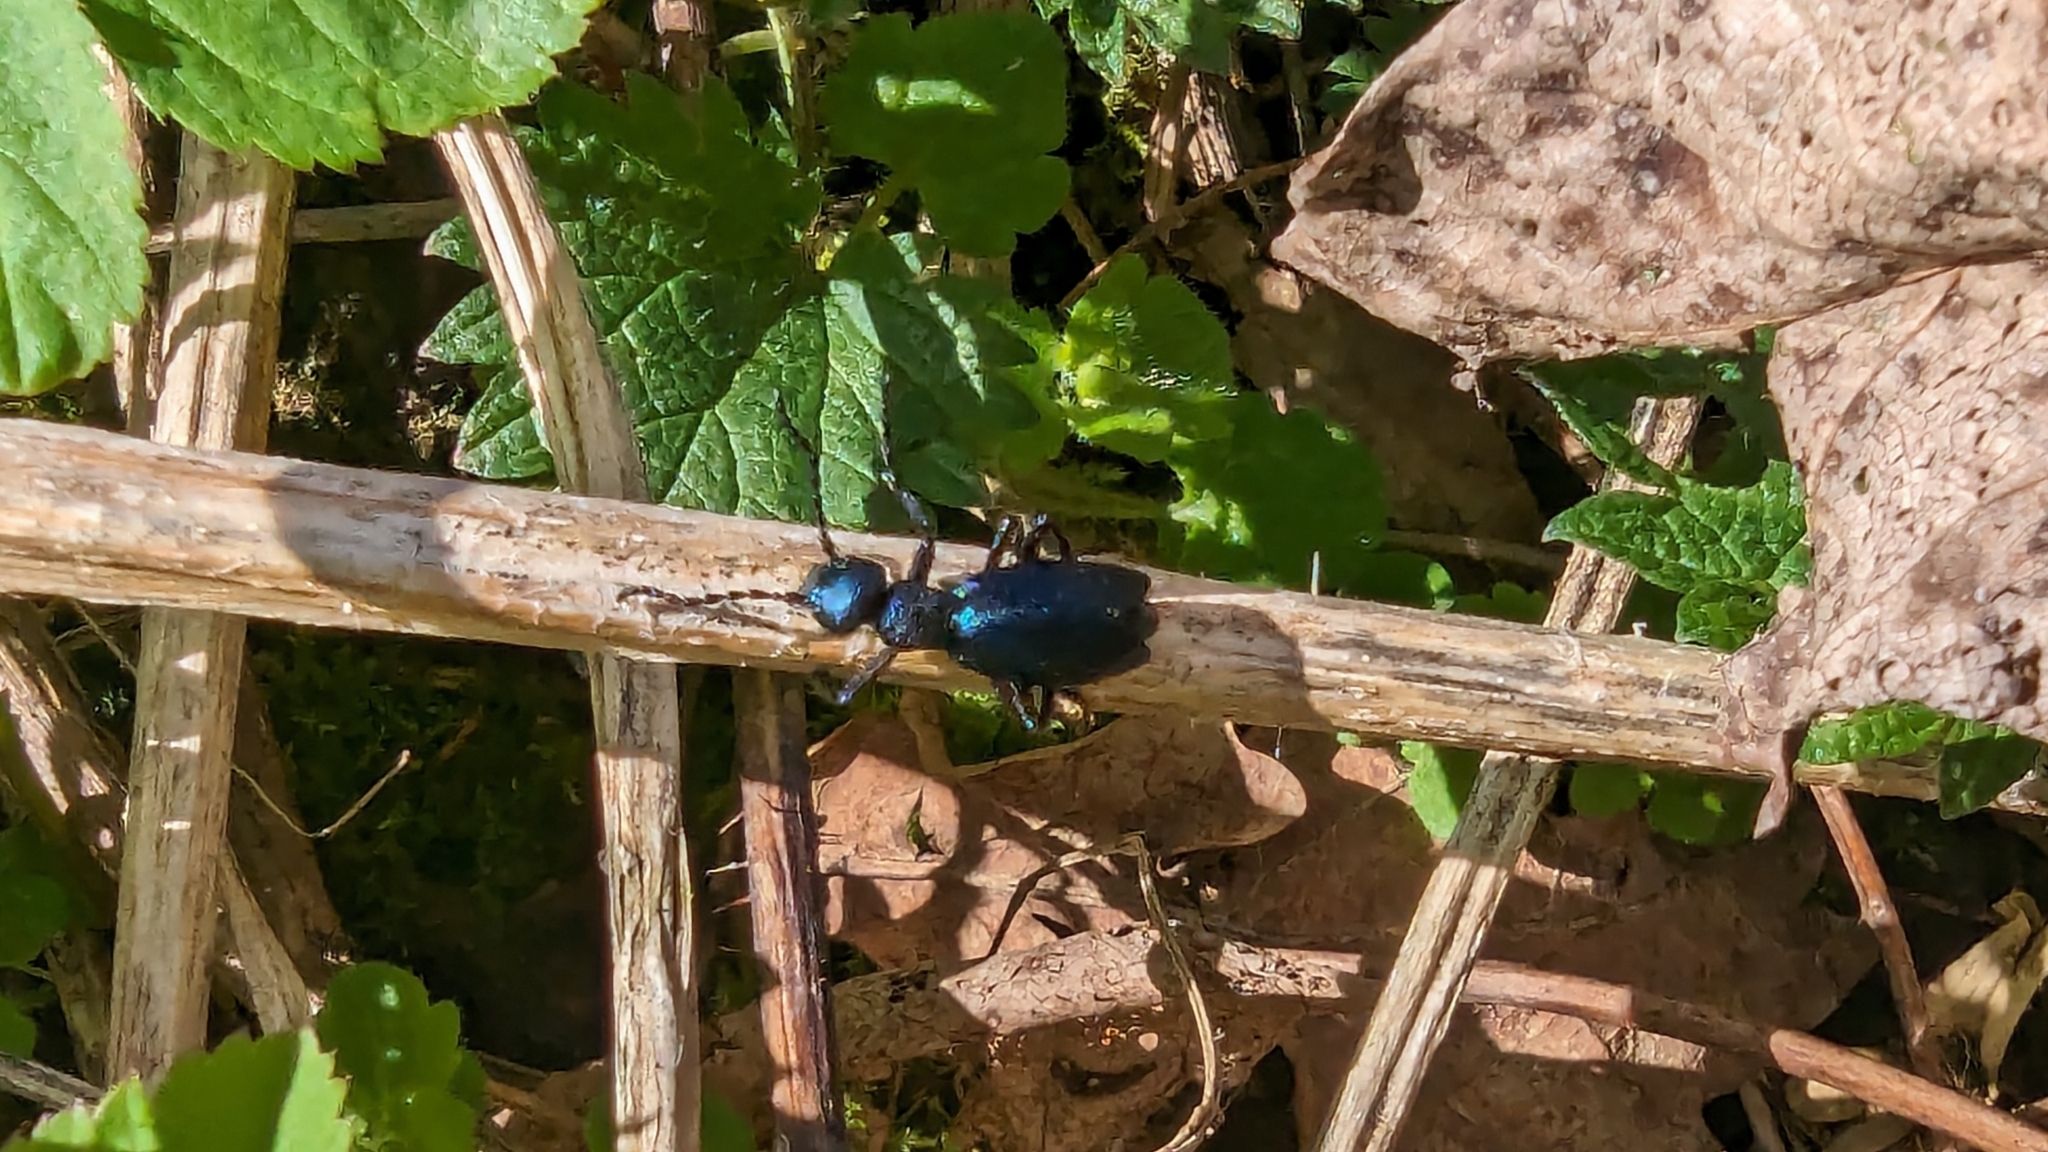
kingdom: Animalia
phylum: Arthropoda
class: Insecta
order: Coleoptera
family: Meloidae
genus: Meloe
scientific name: Meloe violaceus
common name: Violet oil-beetle
